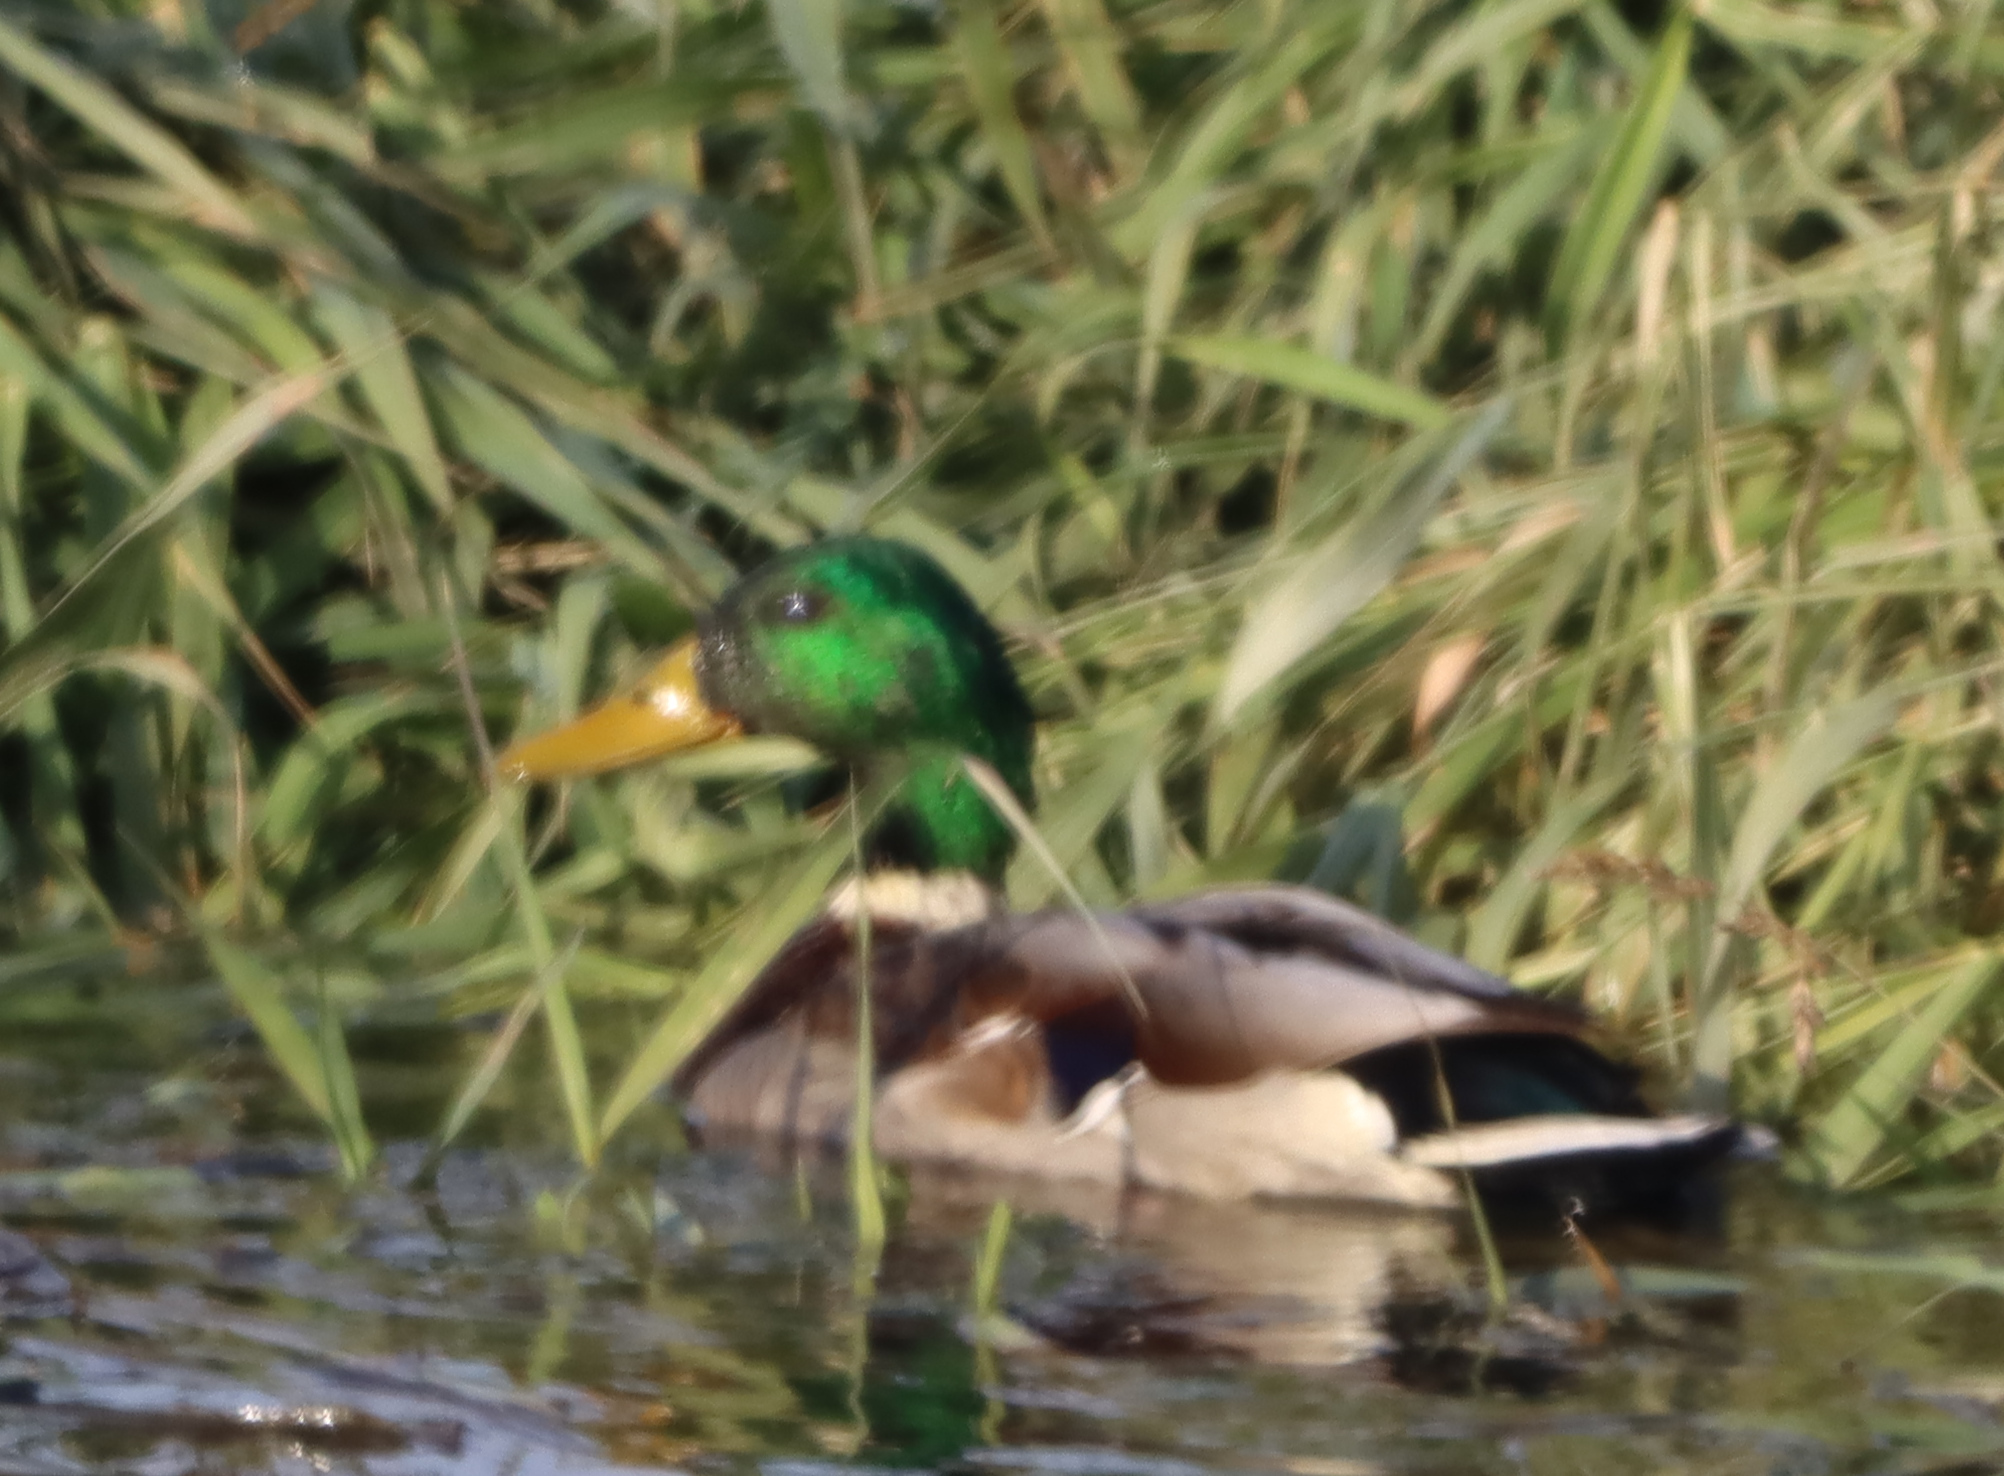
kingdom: Animalia
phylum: Chordata
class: Aves
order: Anseriformes
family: Anatidae
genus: Anas
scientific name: Anas platyrhynchos
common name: Mallard
